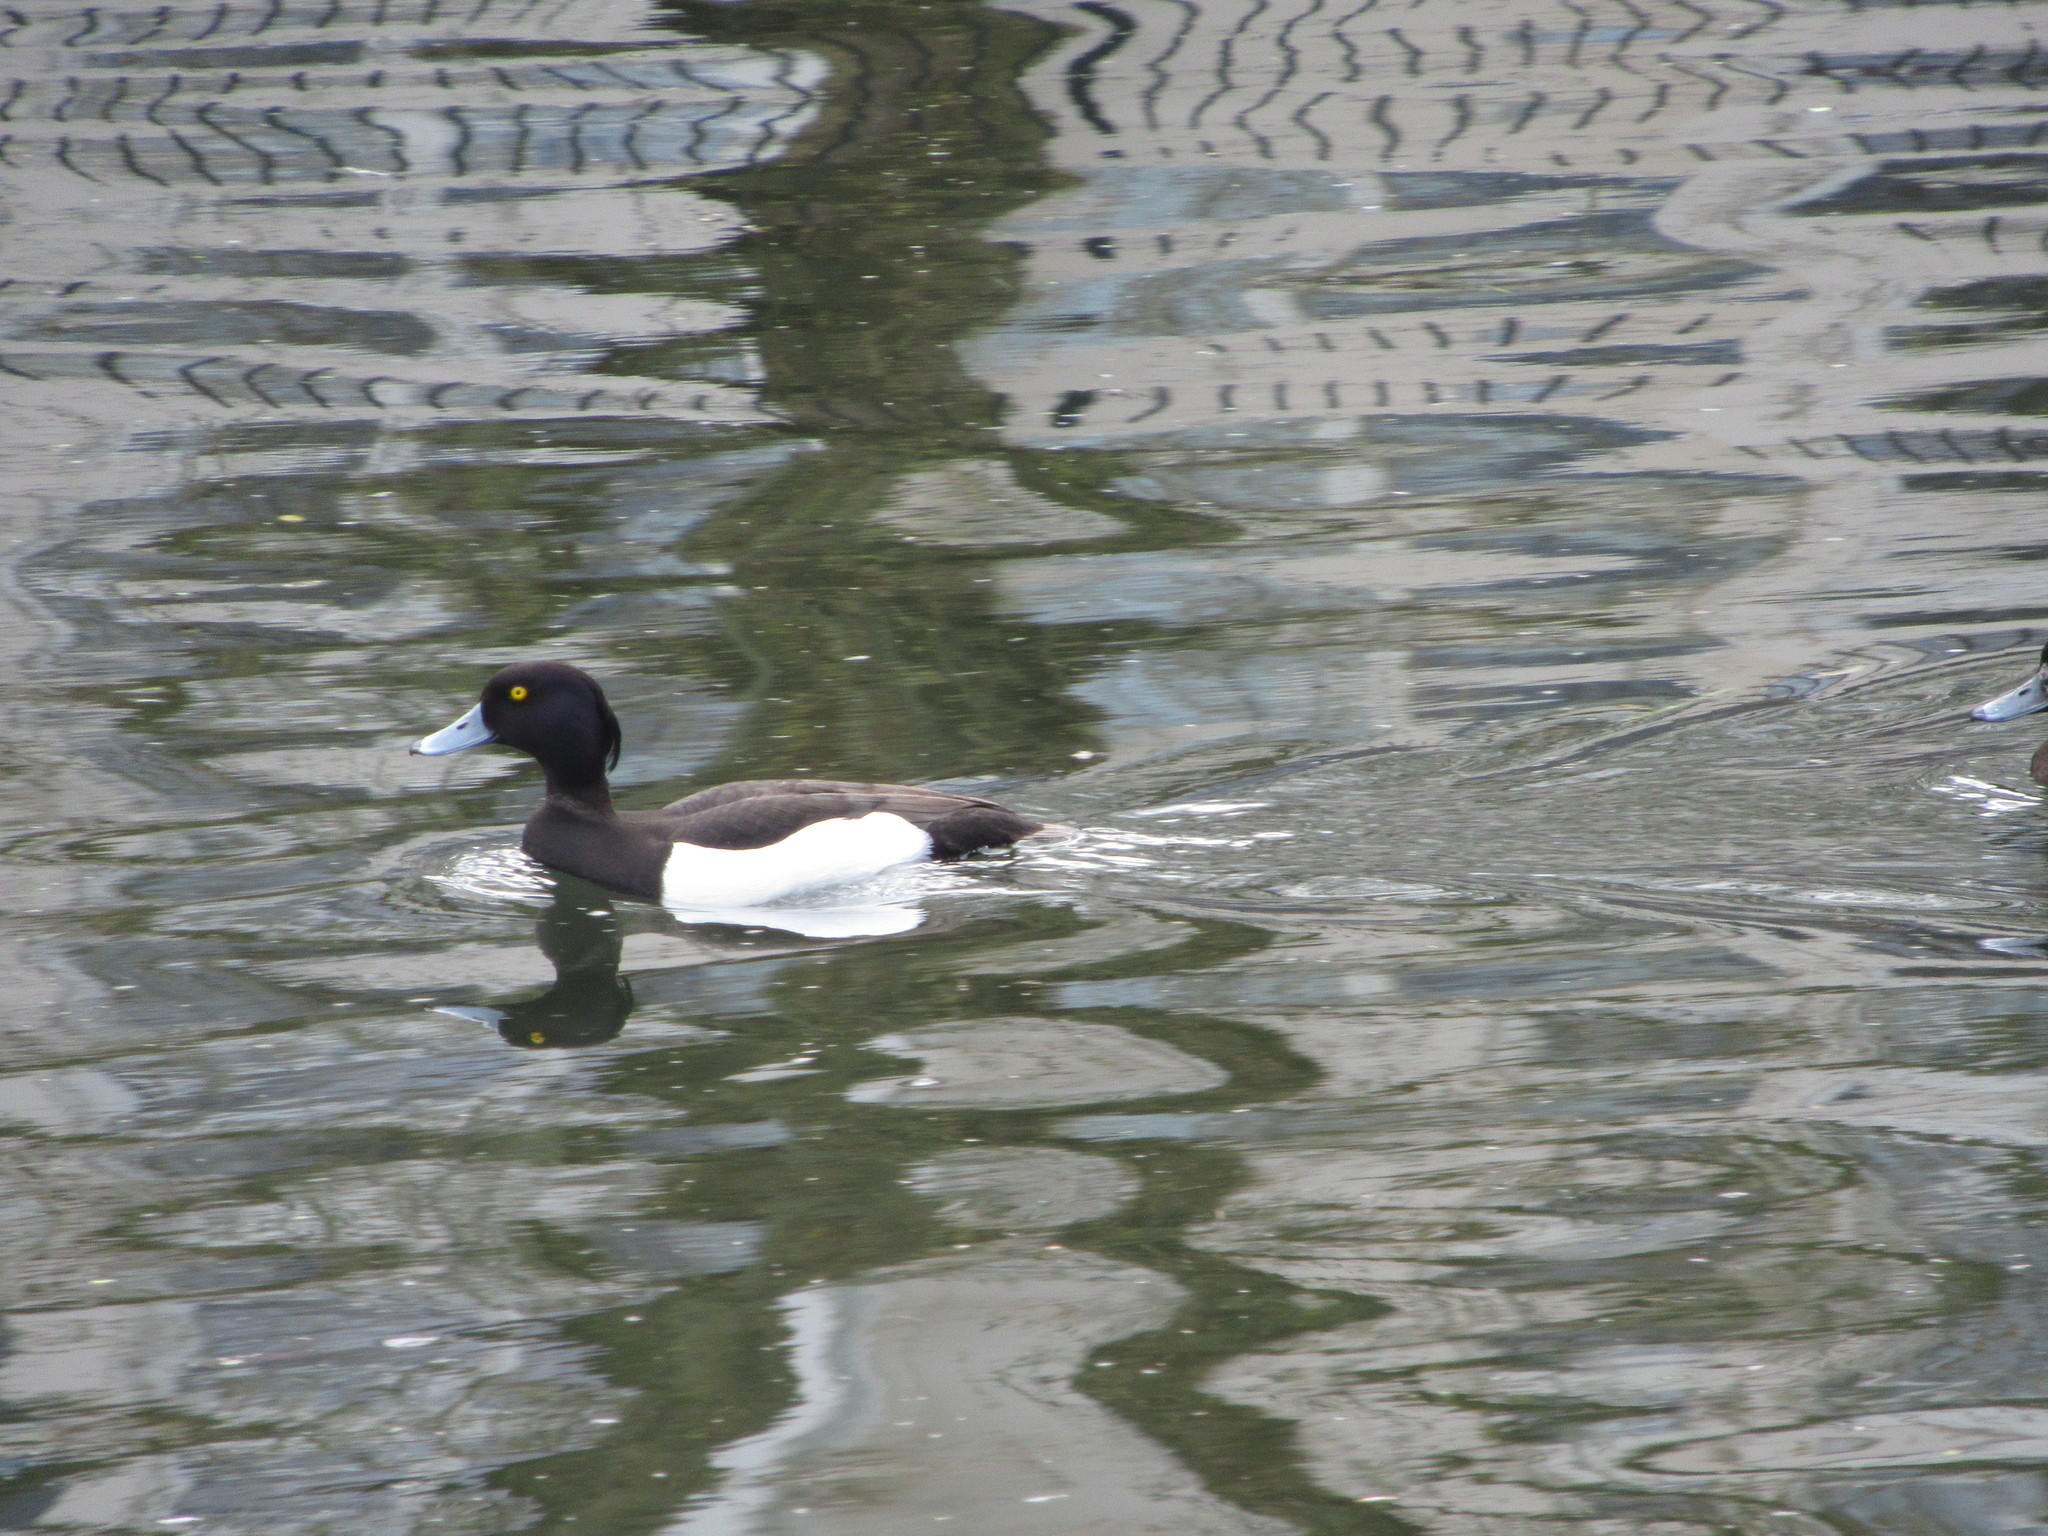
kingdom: Animalia
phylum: Chordata
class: Aves
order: Anseriformes
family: Anatidae
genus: Aythya
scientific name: Aythya fuligula
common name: Tufted duck
